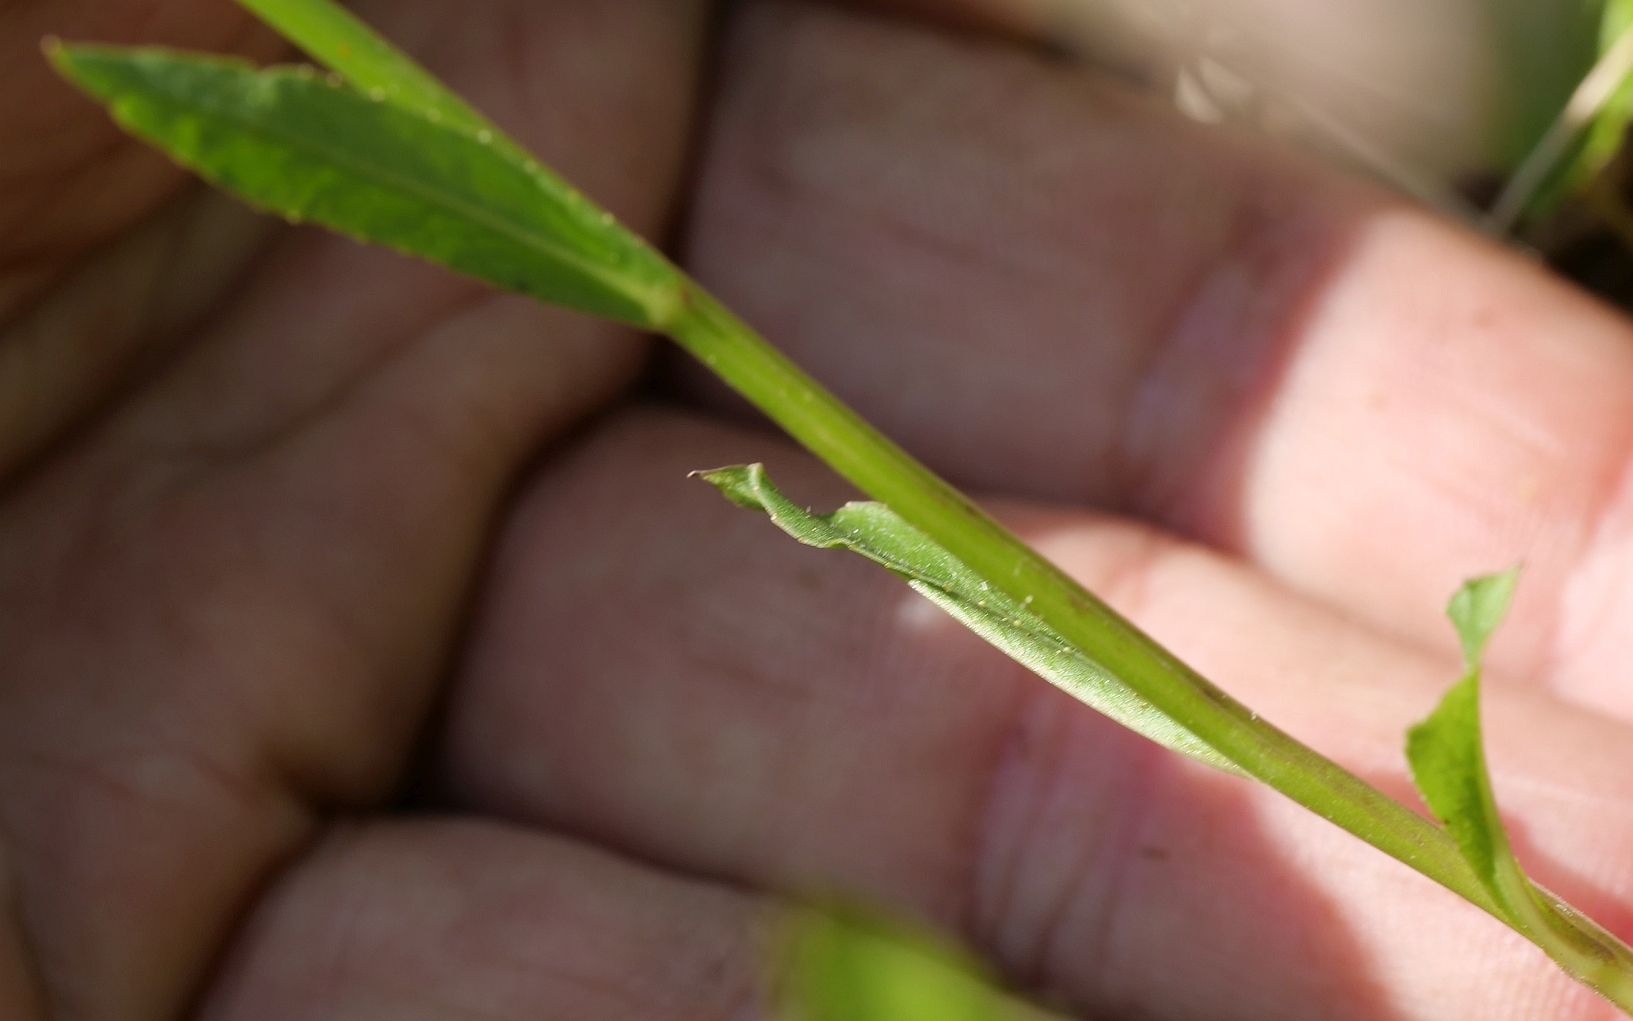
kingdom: Plantae
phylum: Tracheophyta
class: Magnoliopsida
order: Asterales
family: Campanulaceae
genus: Campanula
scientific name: Campanula rapunculus
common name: Rampion bellflower
